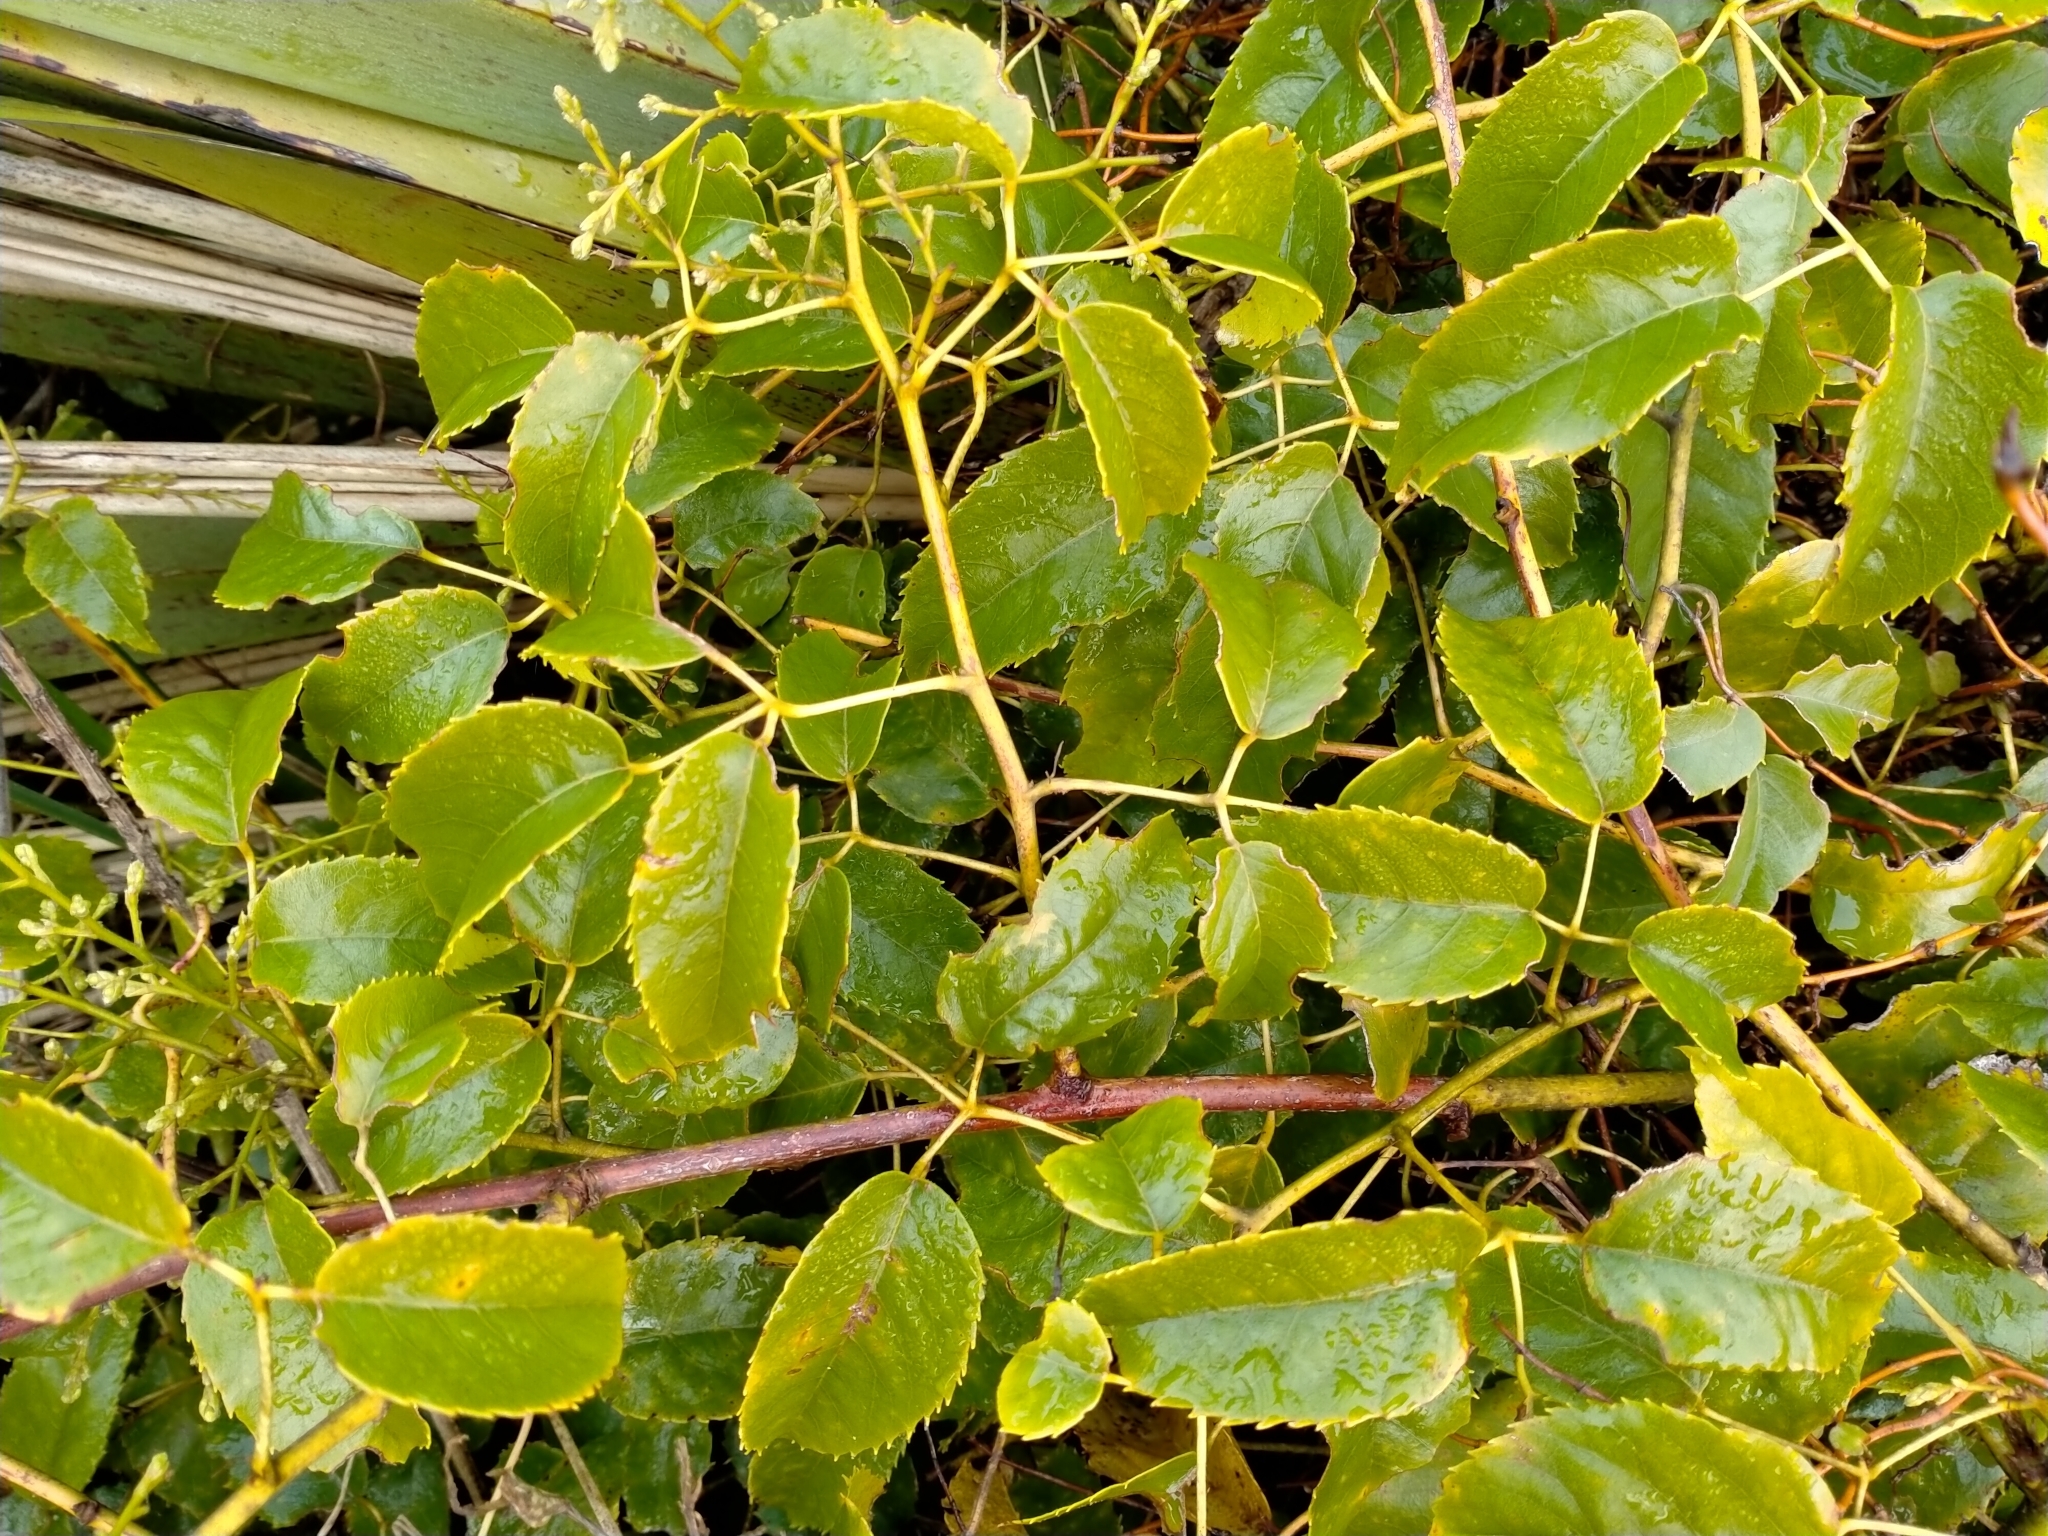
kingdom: Plantae
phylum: Tracheophyta
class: Magnoliopsida
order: Rosales
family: Rosaceae
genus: Rubus
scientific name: Rubus cissoides
